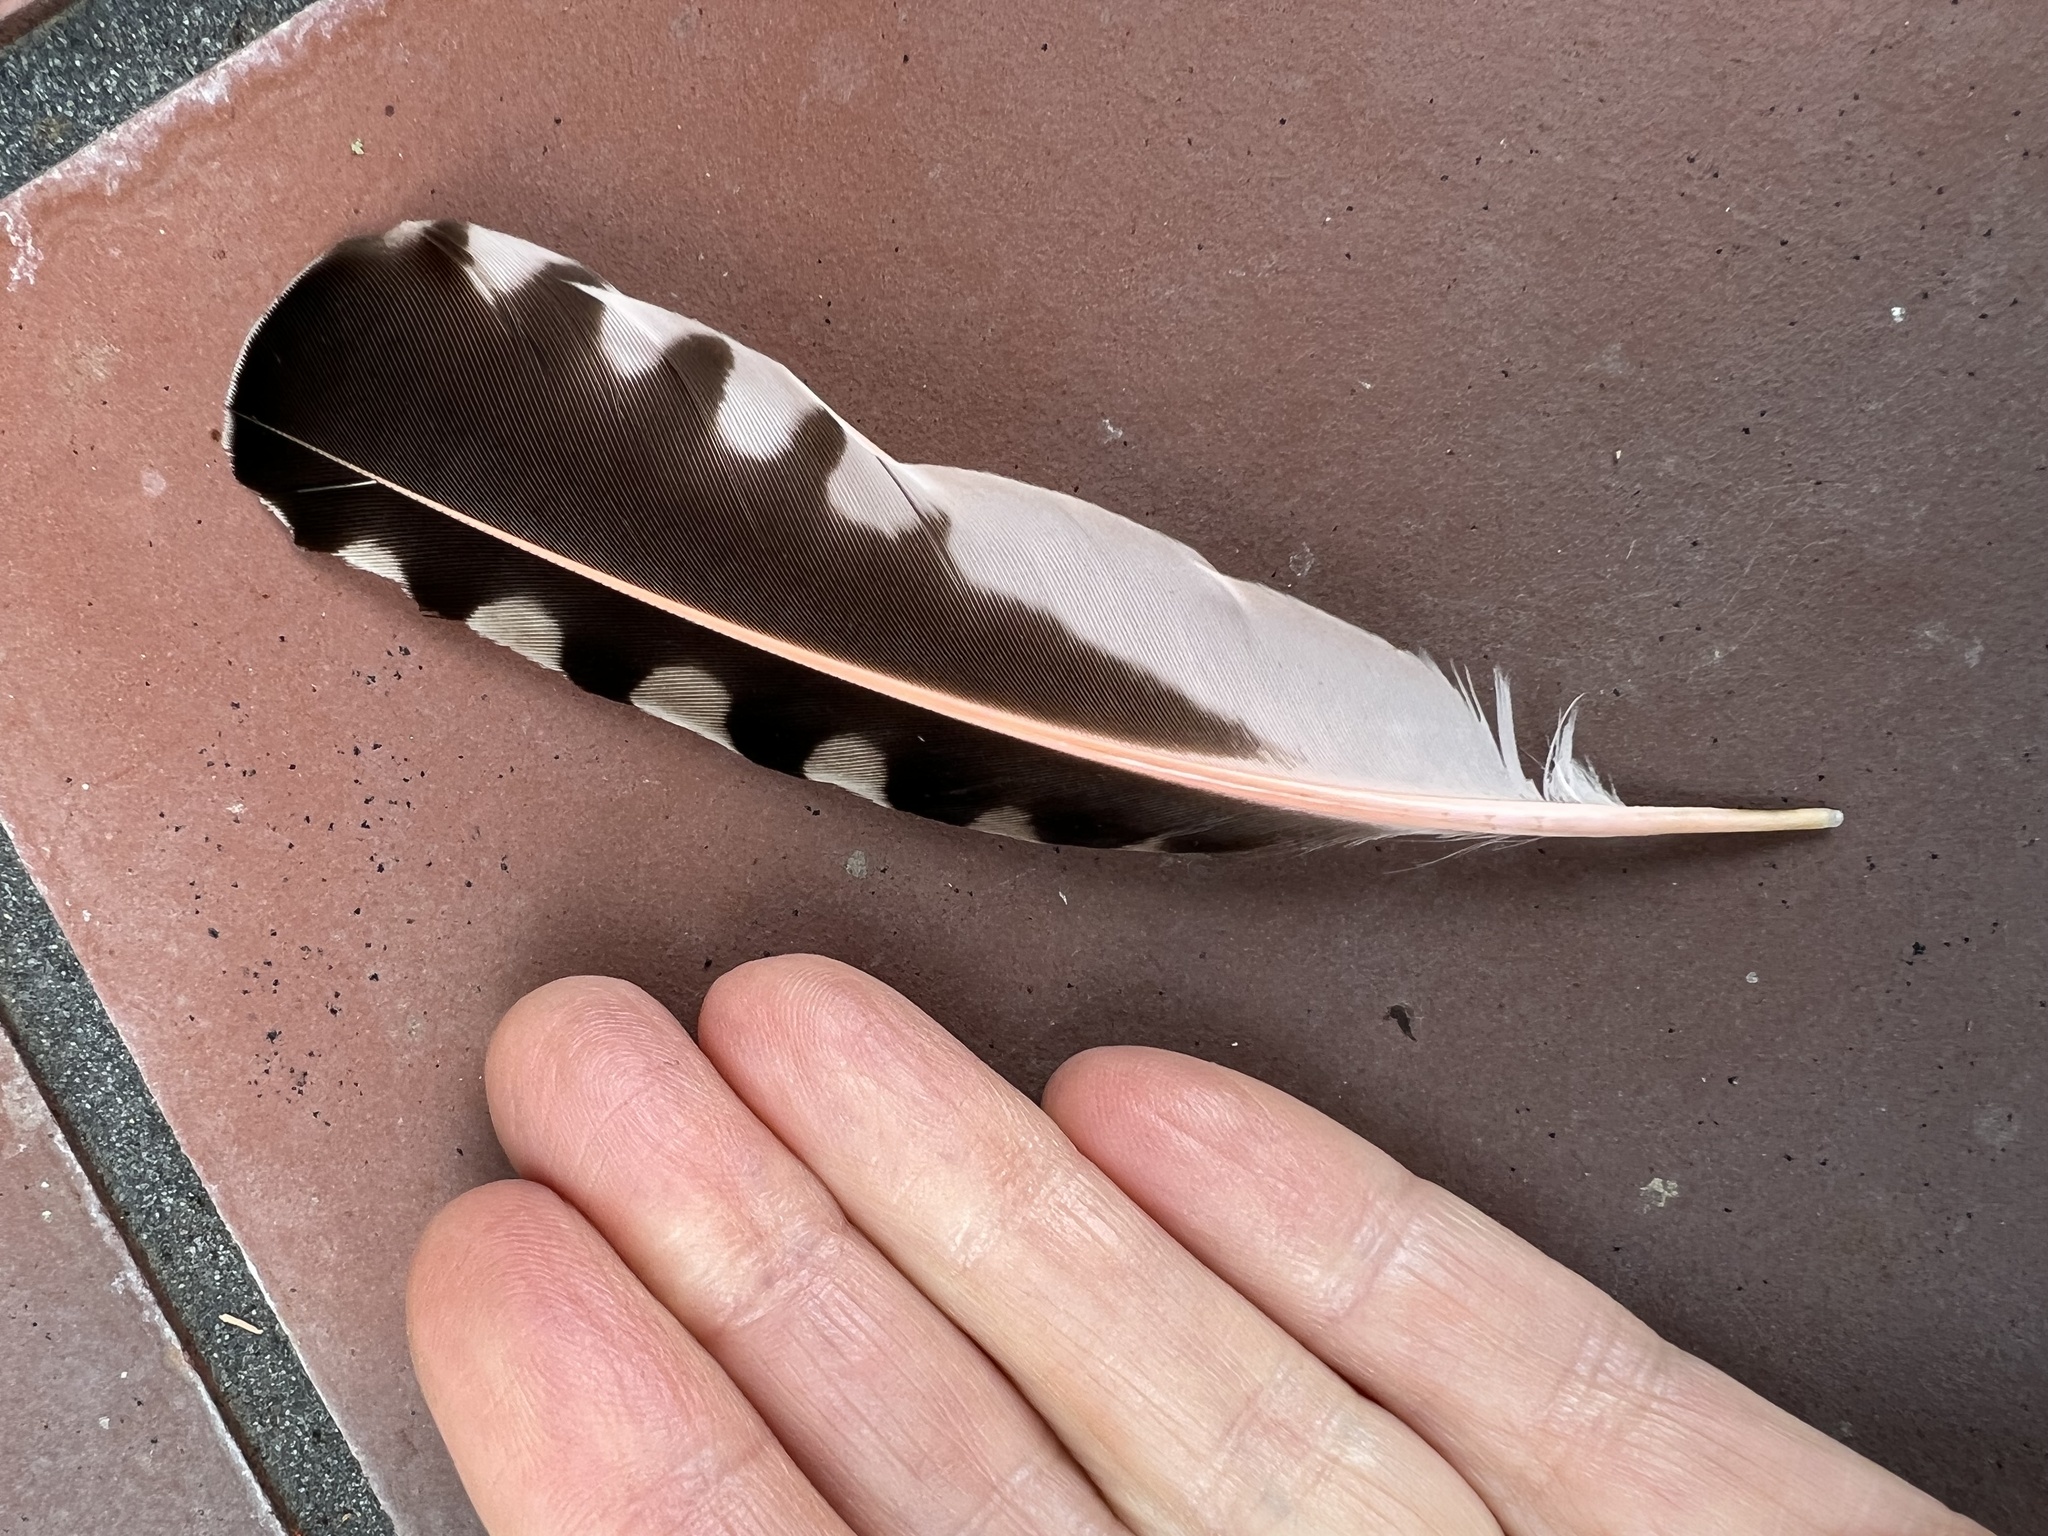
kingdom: Animalia
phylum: Chordata
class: Aves
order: Piciformes
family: Picidae
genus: Colaptes
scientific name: Colaptes auratus
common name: Northern flicker
